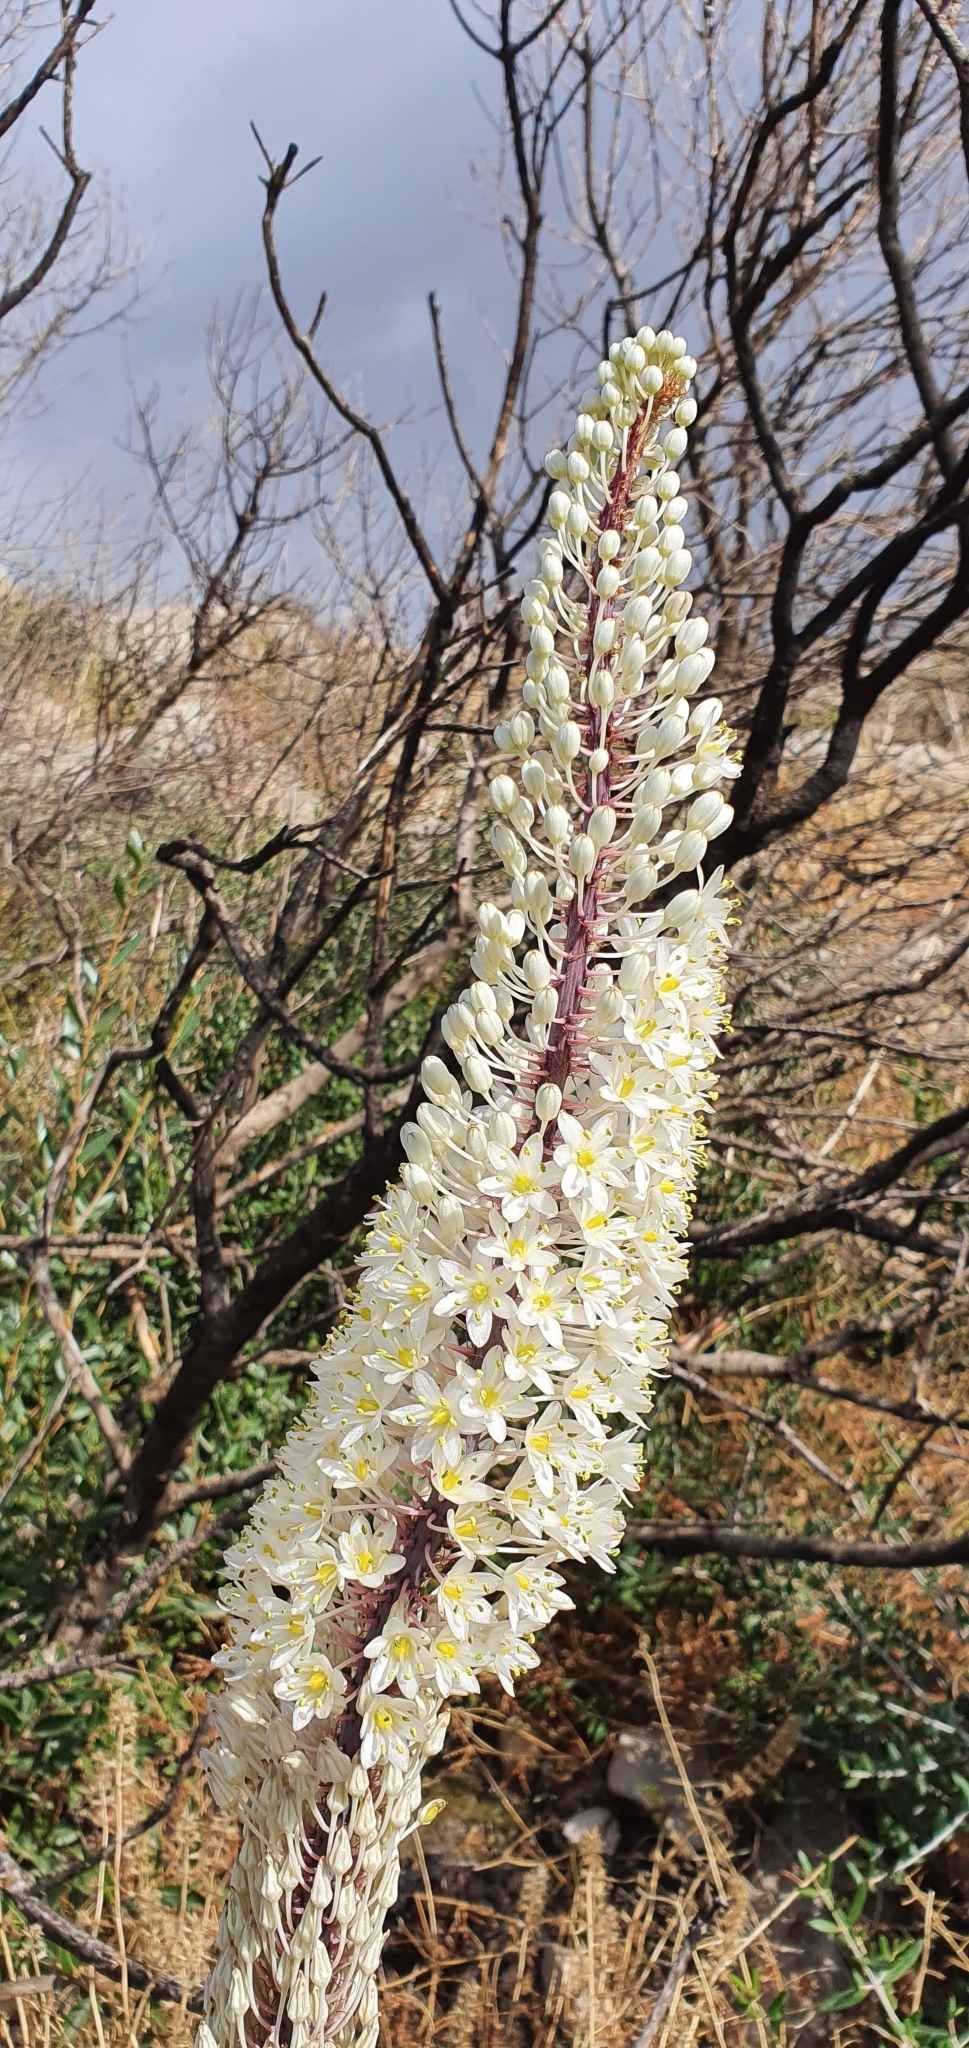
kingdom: Plantae
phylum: Tracheophyta
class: Liliopsida
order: Asparagales
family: Asparagaceae
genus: Drimia
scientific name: Drimia numidica
